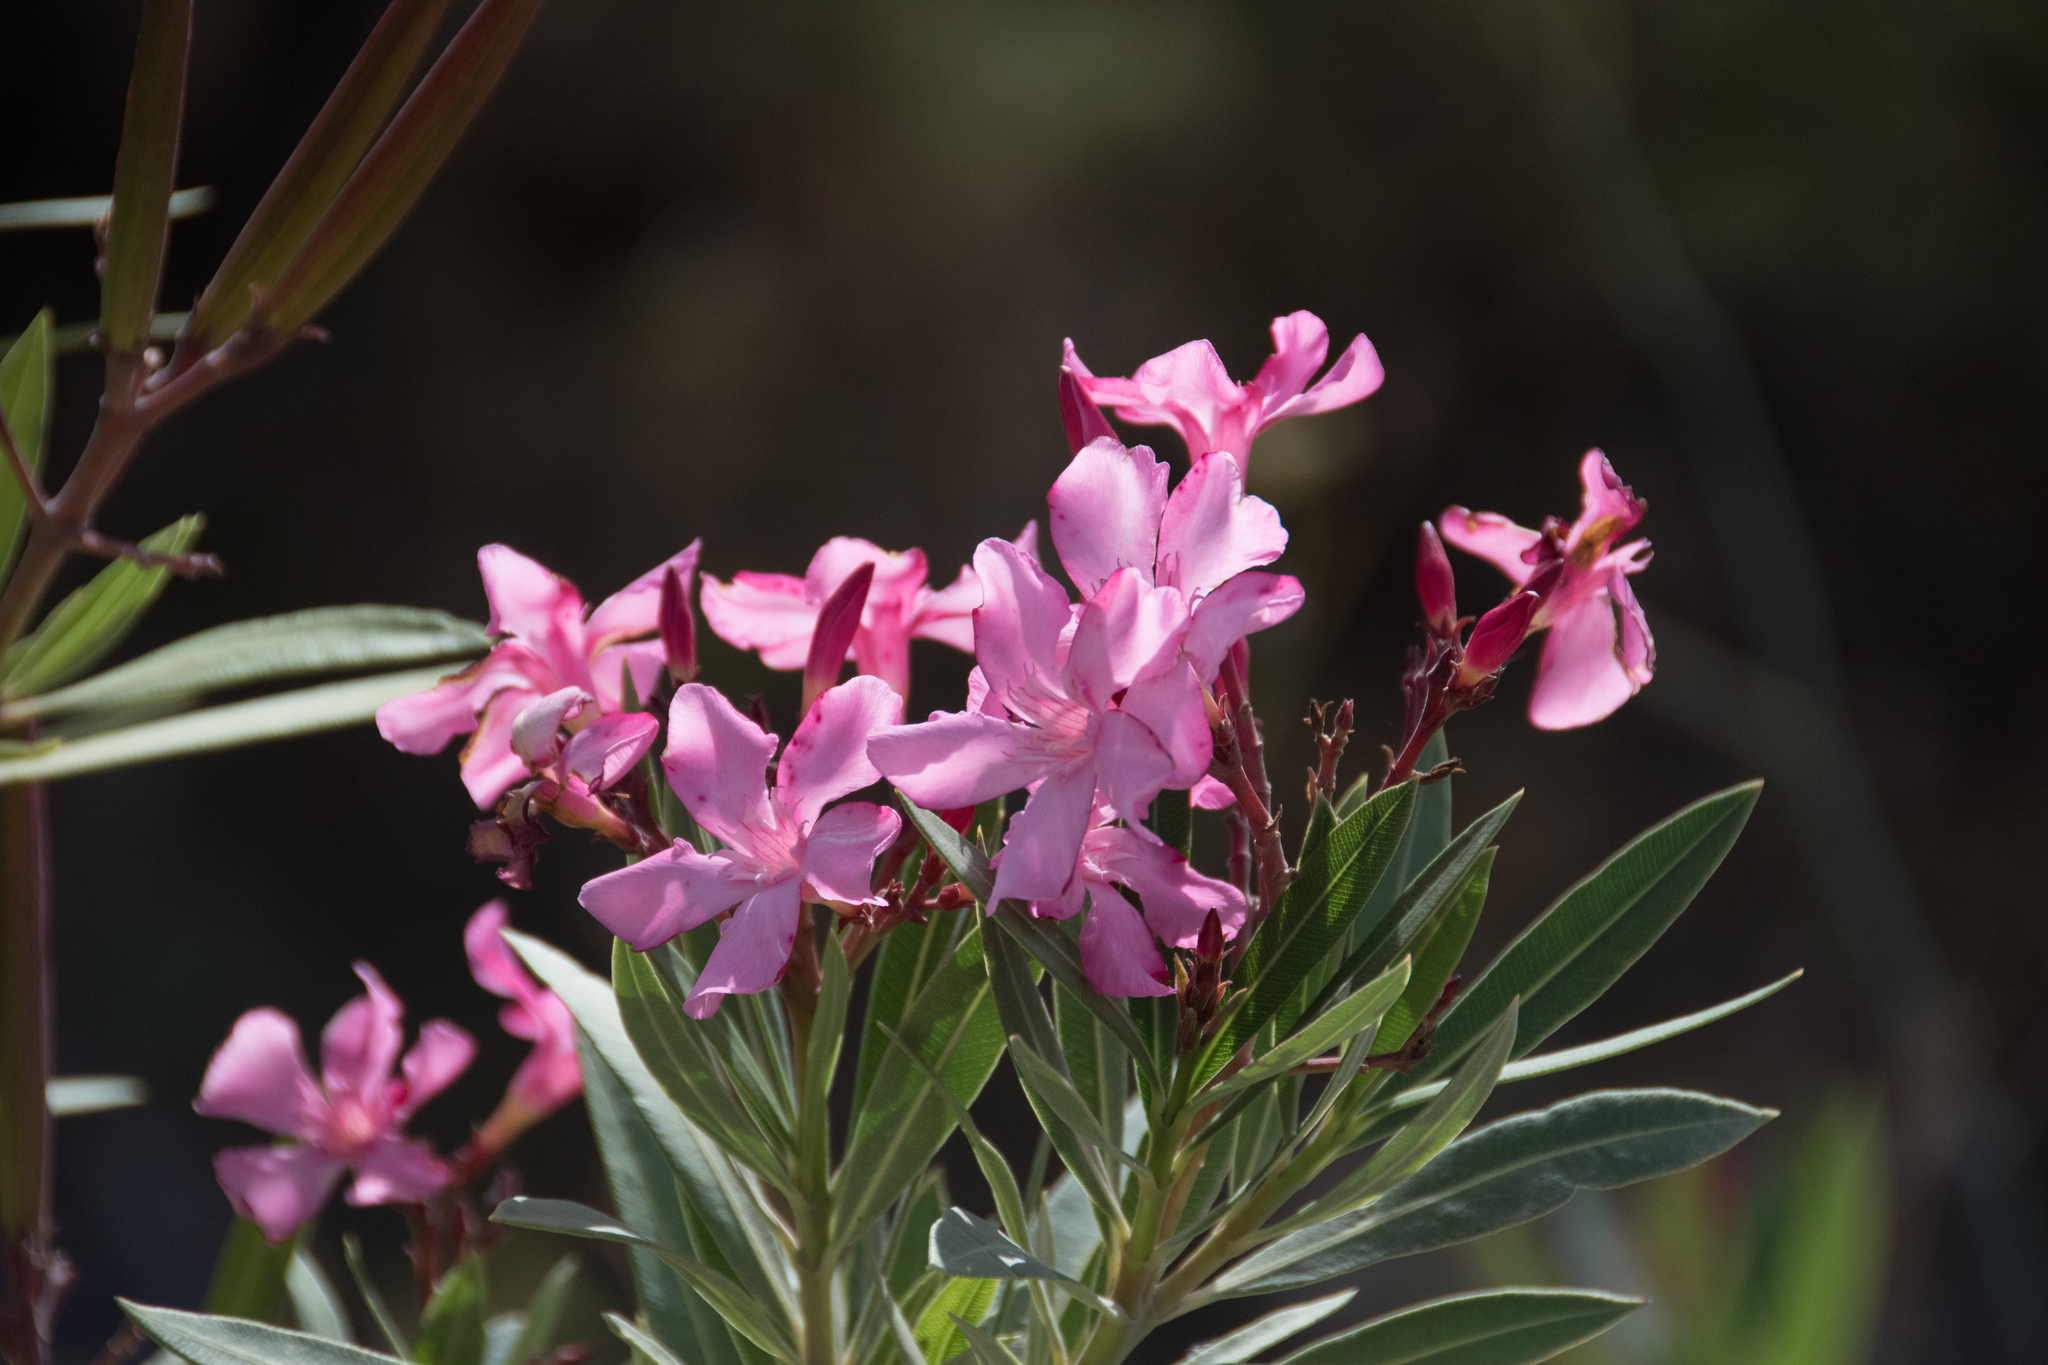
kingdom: Plantae
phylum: Tracheophyta
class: Magnoliopsida
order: Gentianales
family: Apocynaceae
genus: Nerium
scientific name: Nerium oleander
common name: Oleander
